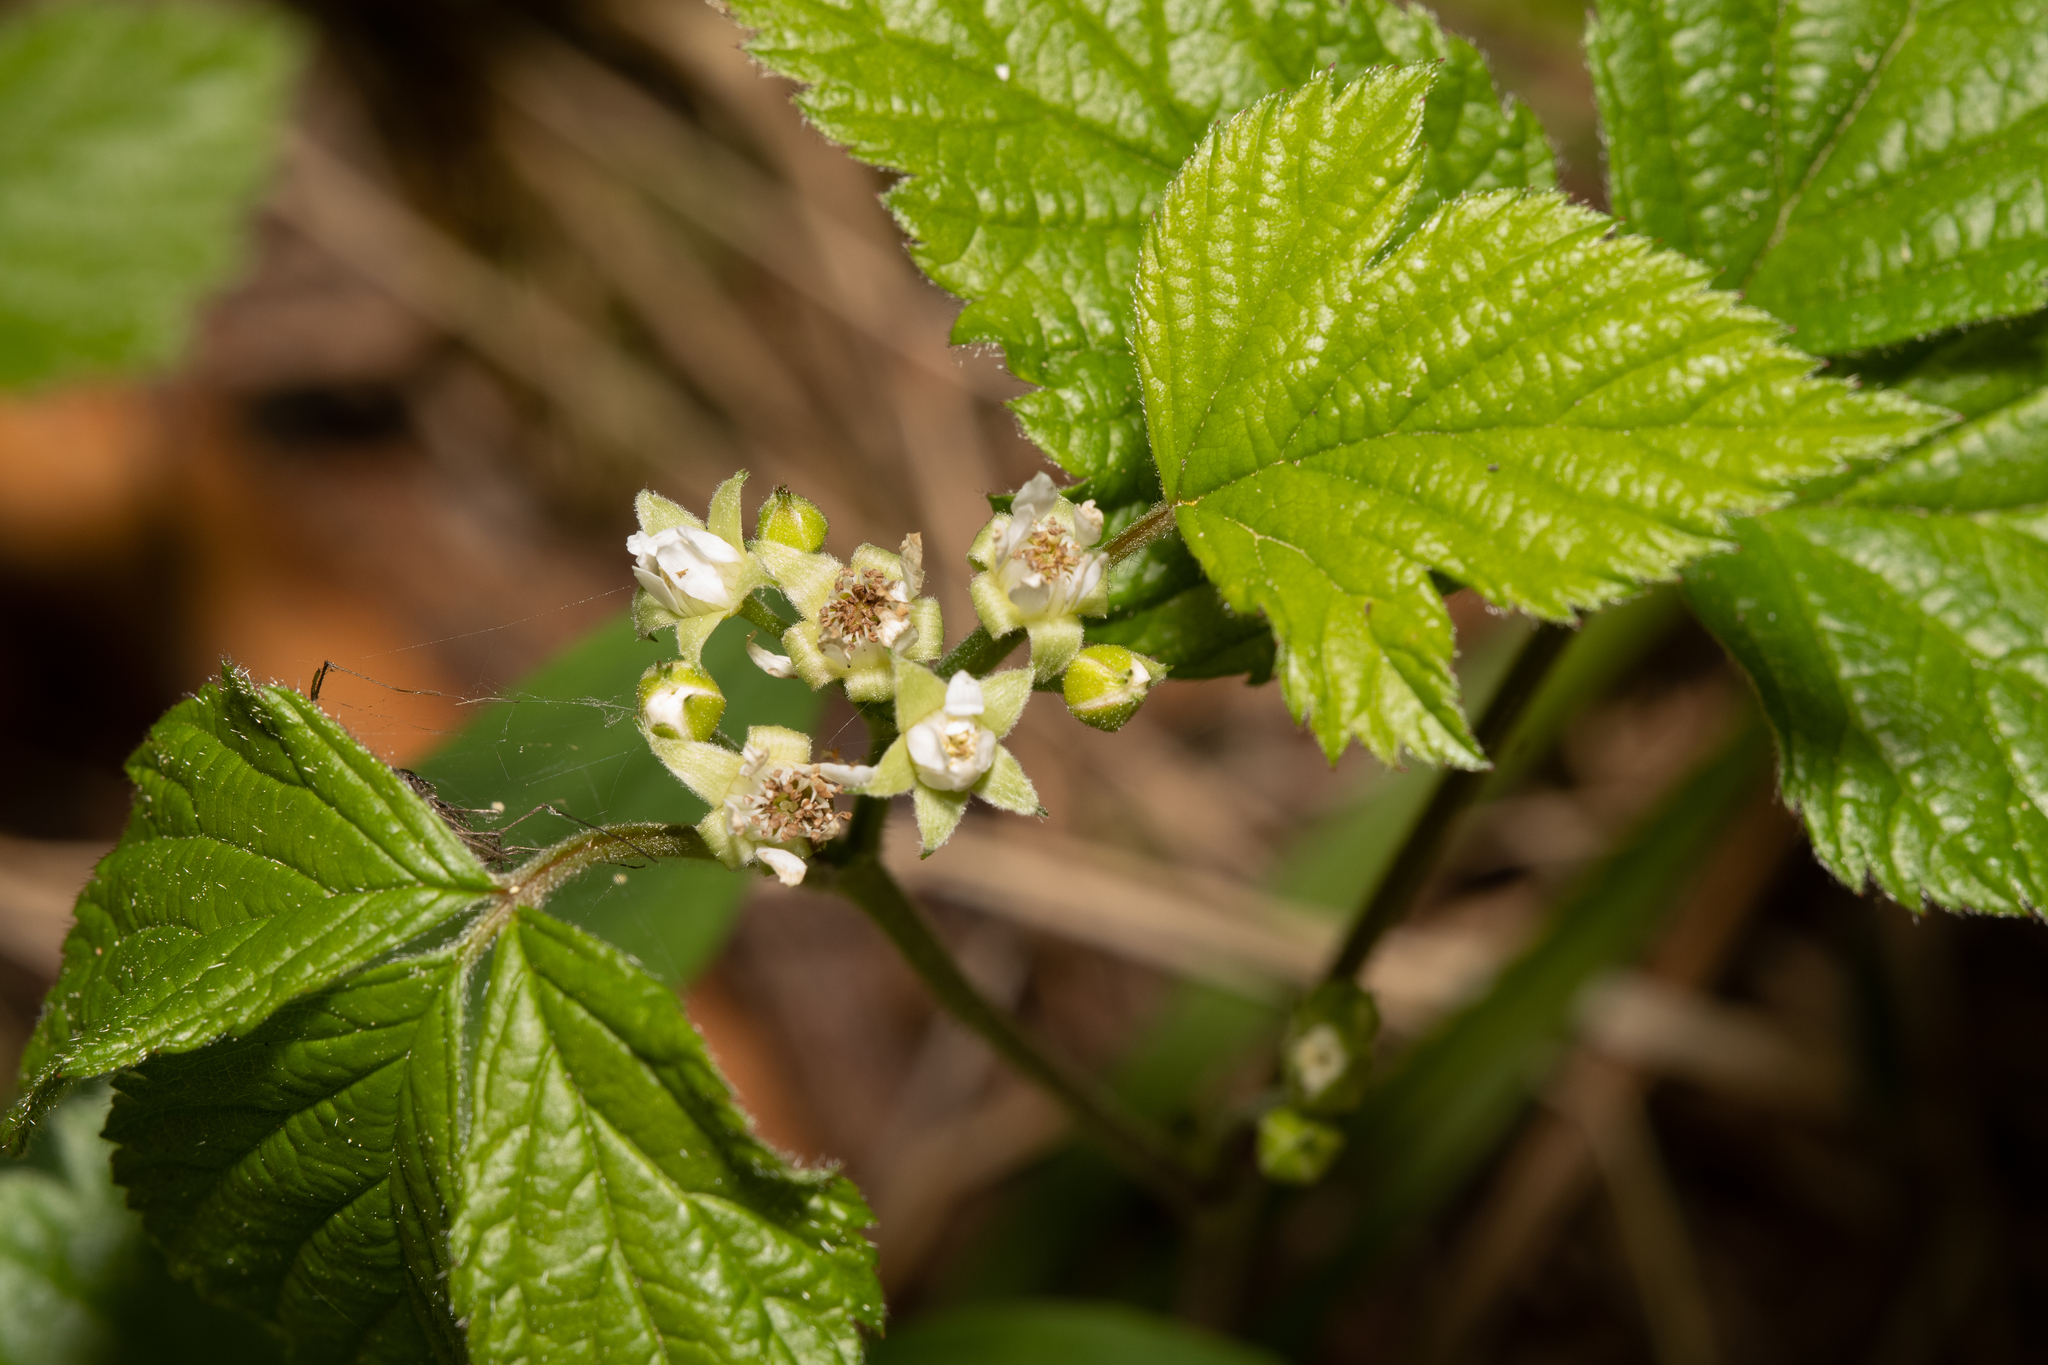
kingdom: Plantae
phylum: Tracheophyta
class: Magnoliopsida
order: Rosales
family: Rosaceae
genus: Rubus
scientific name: Rubus saxatilis
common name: Stone bramble
